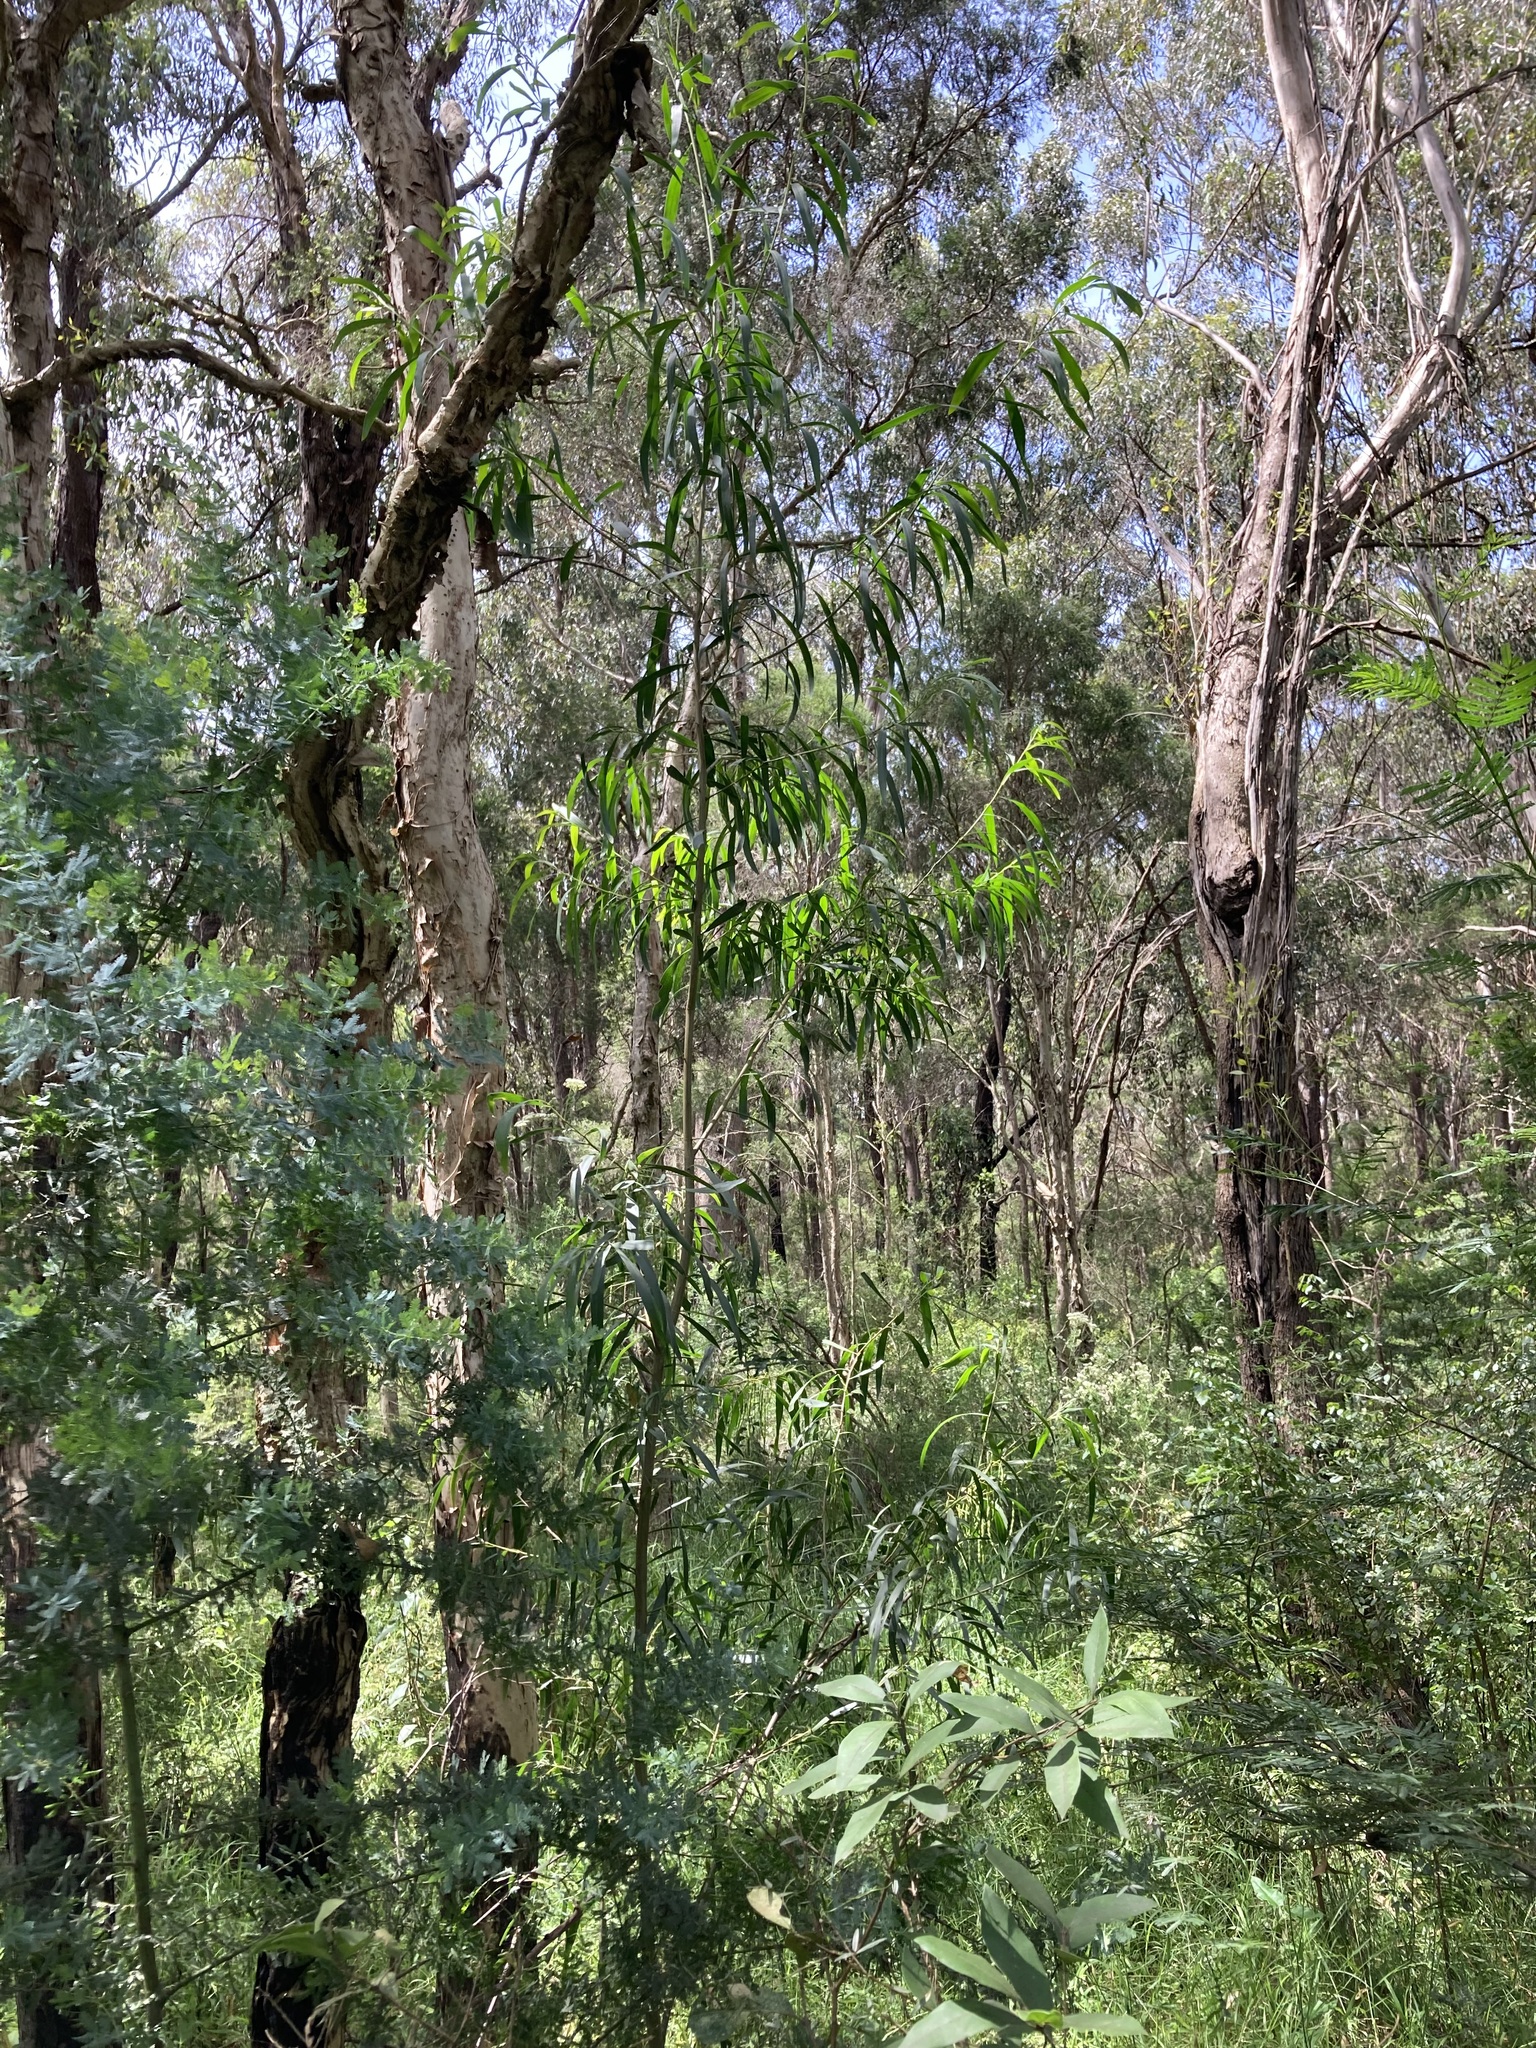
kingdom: Plantae
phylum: Tracheophyta
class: Magnoliopsida
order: Fabales
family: Fabaceae
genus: Acacia
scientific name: Acacia implexa
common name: Black wattle
